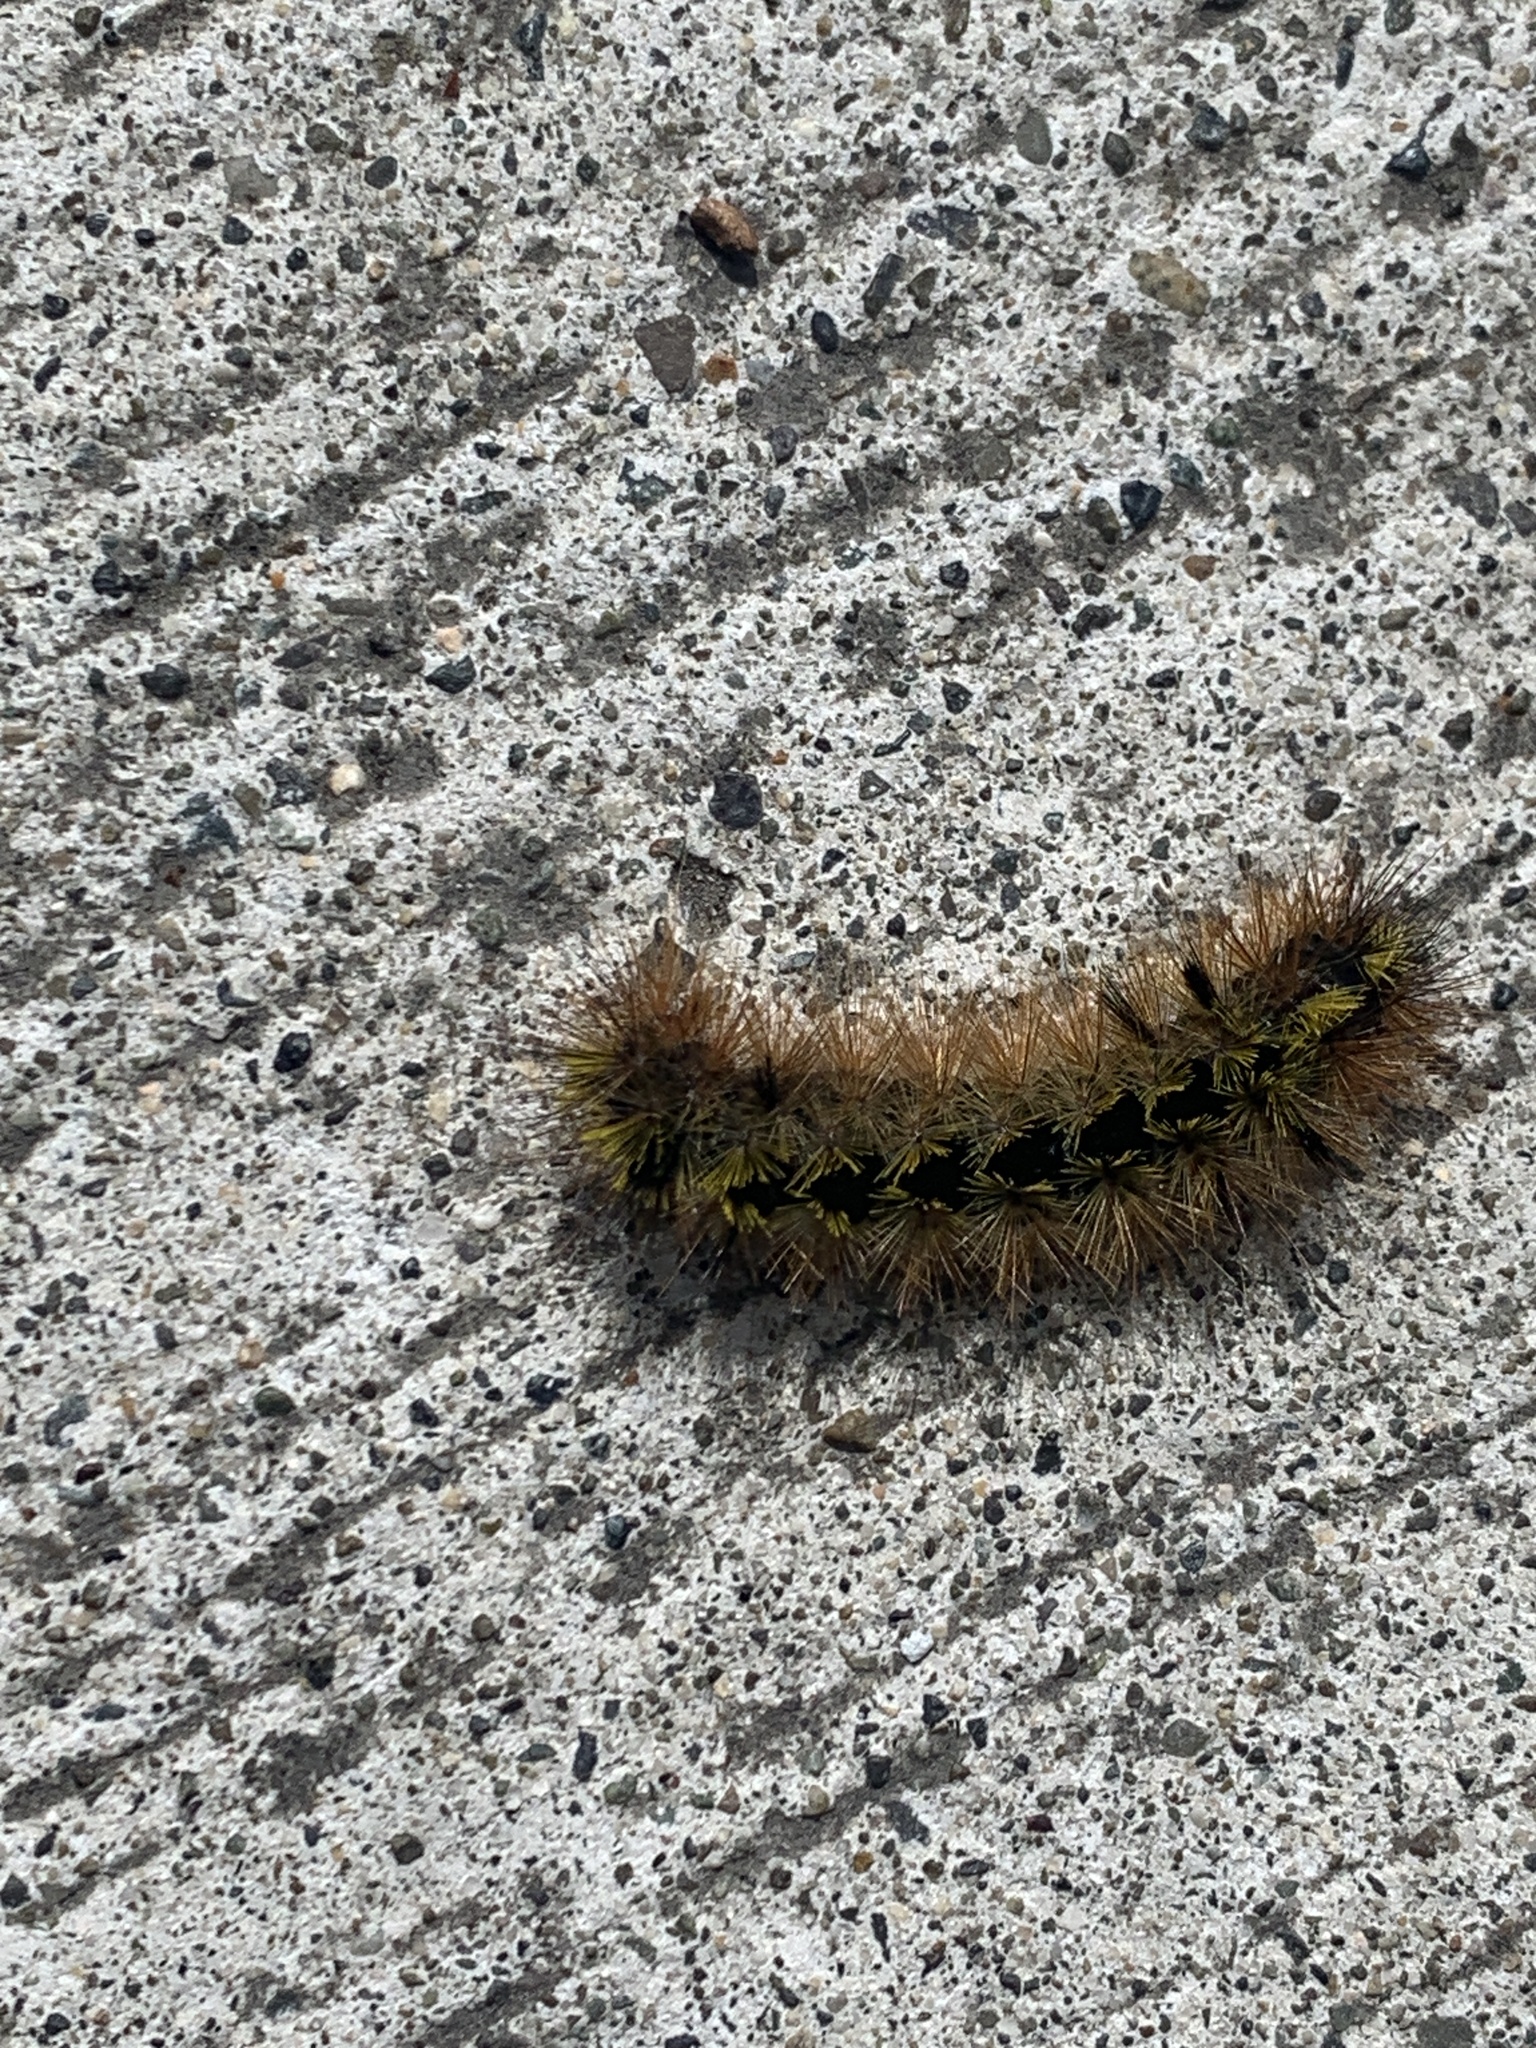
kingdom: Animalia
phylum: Arthropoda
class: Insecta
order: Lepidoptera
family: Erebidae
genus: Lophocampa
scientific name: Lophocampa argentata
